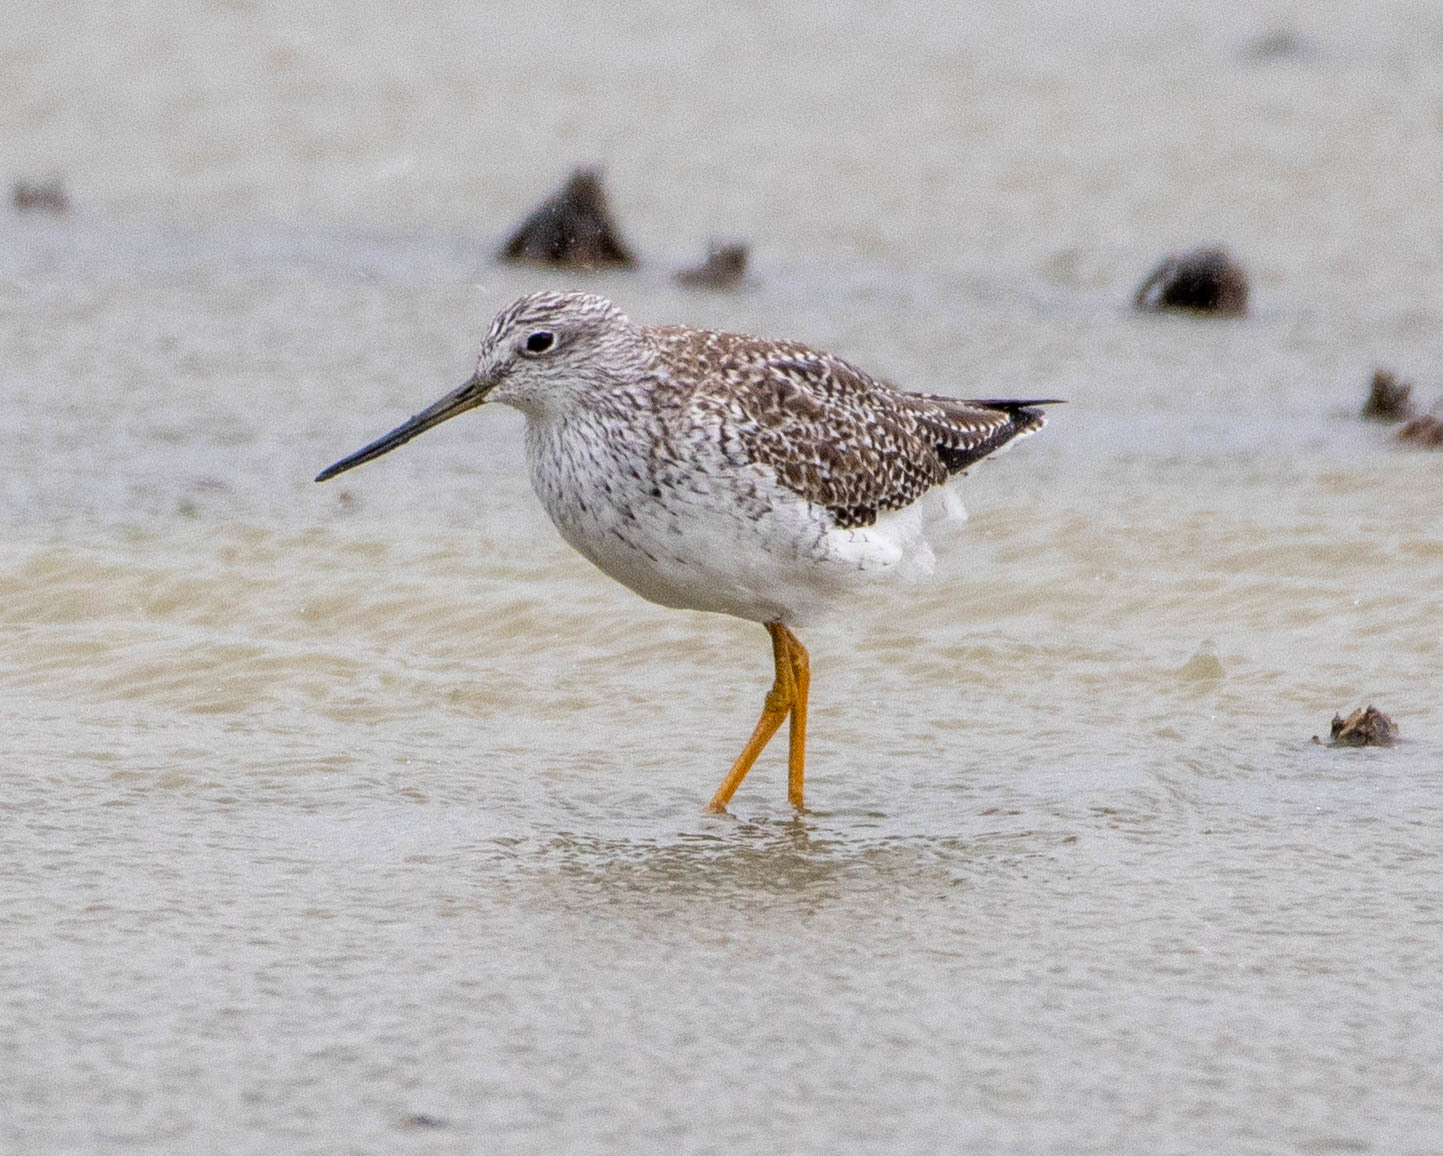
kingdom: Animalia
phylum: Chordata
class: Aves
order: Charadriiformes
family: Scolopacidae
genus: Tringa
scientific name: Tringa melanoleuca
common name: Greater yellowlegs
